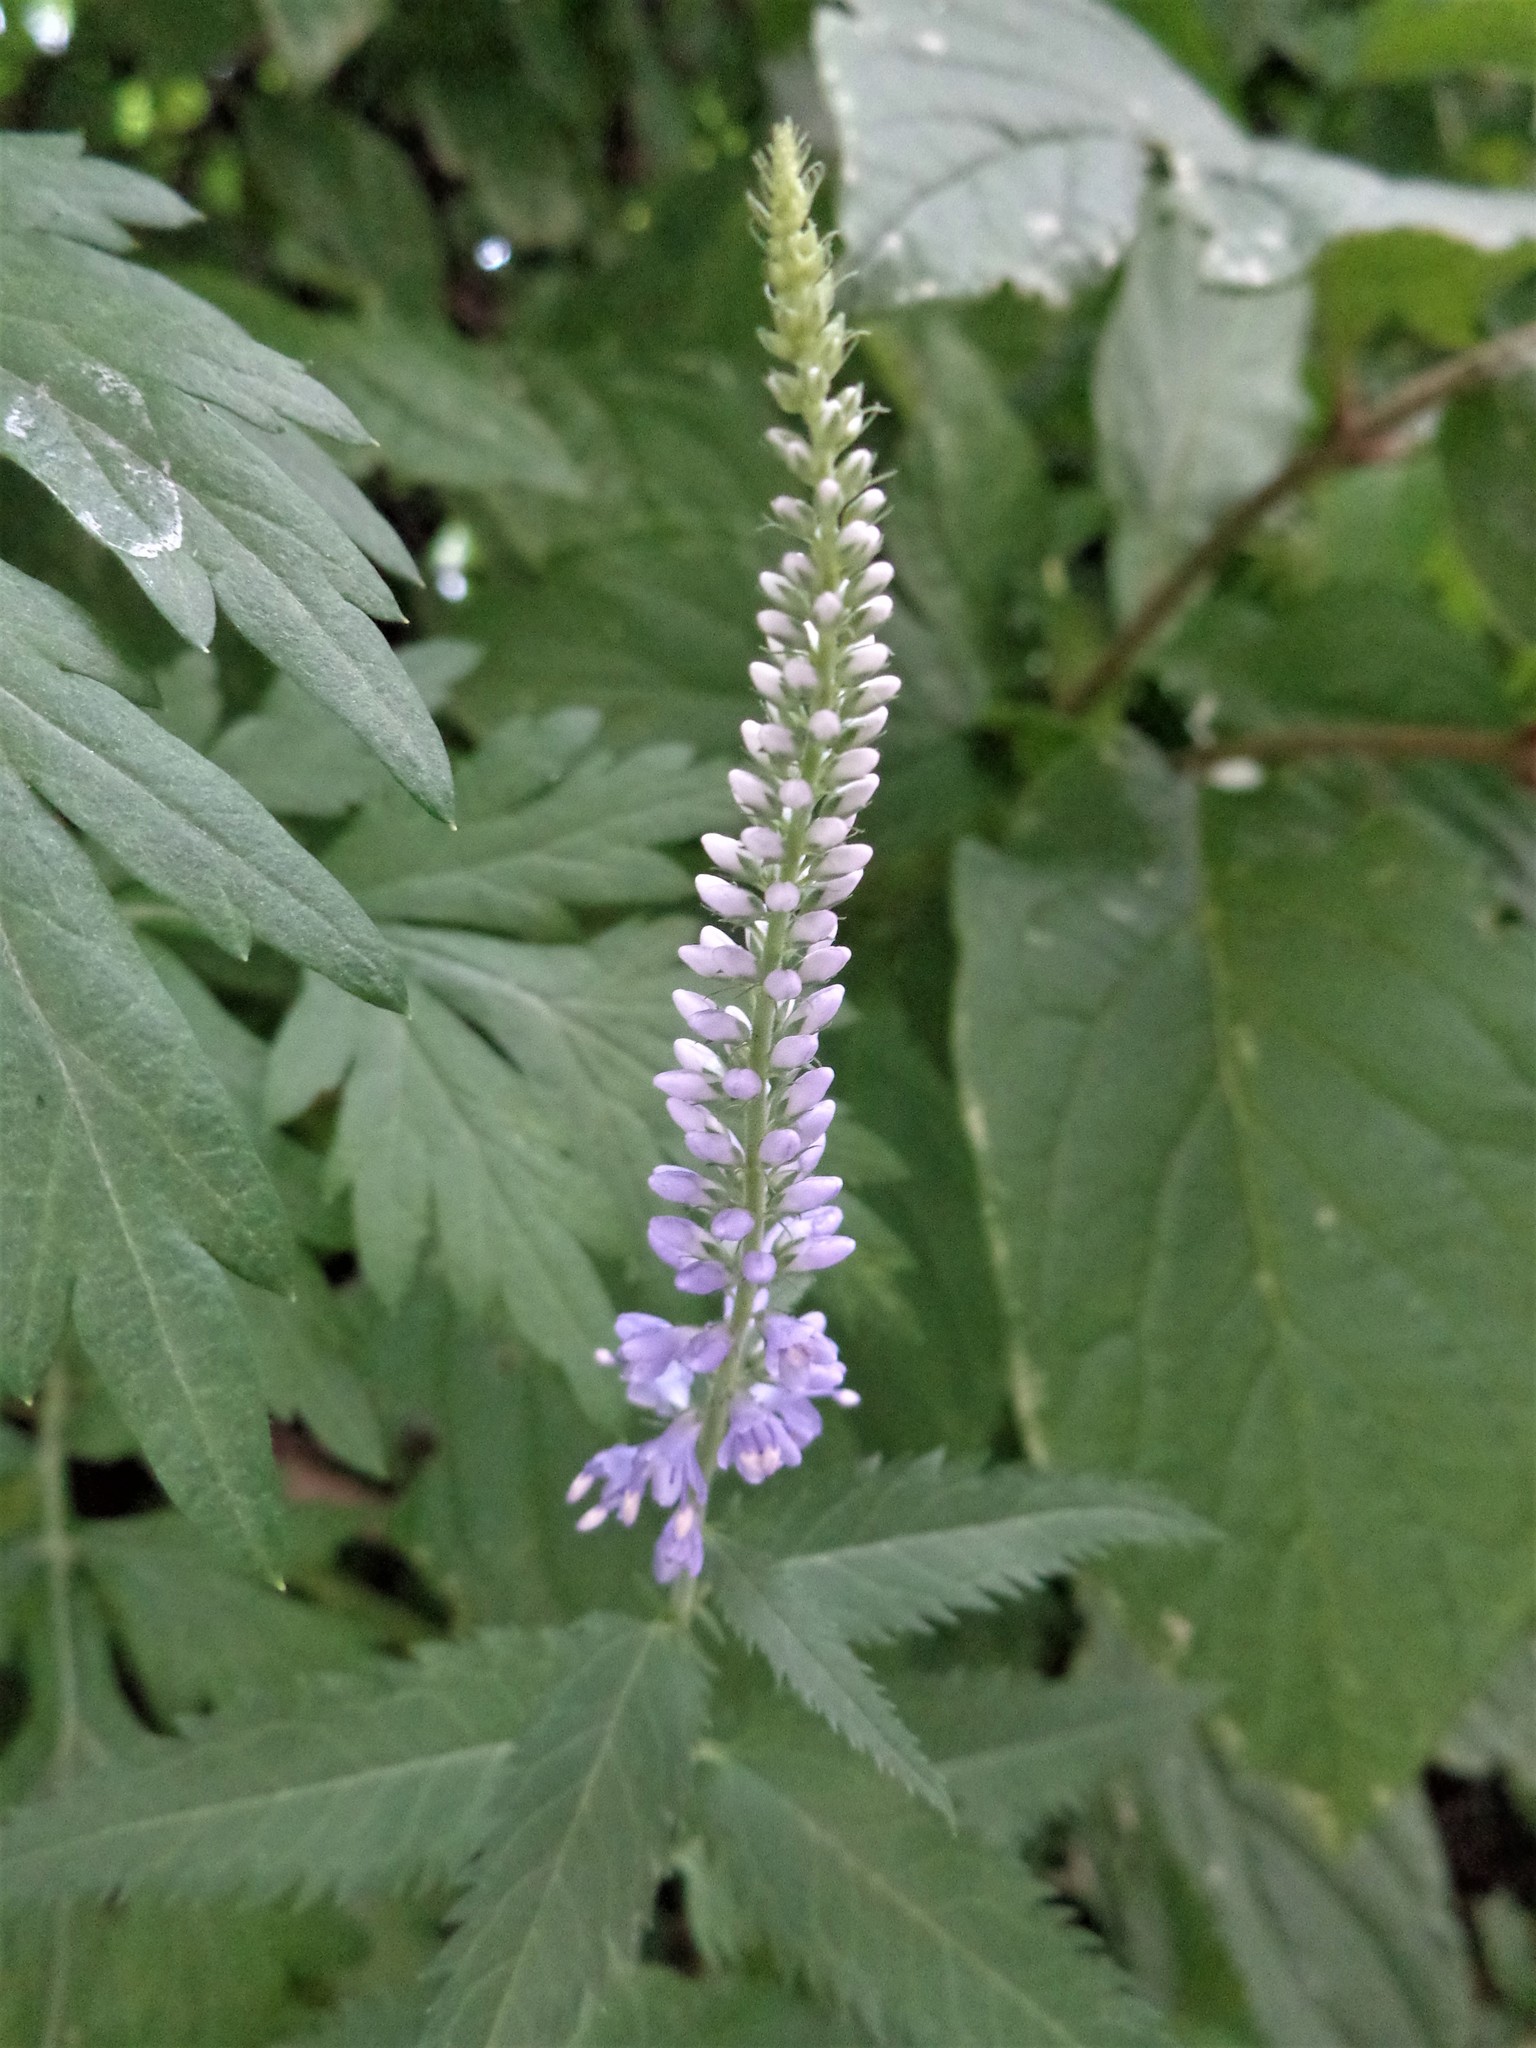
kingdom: Plantae
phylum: Tracheophyta
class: Magnoliopsida
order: Lamiales
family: Plantaginaceae
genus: Veronica
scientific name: Veronica longifolia
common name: Garden speedwell
